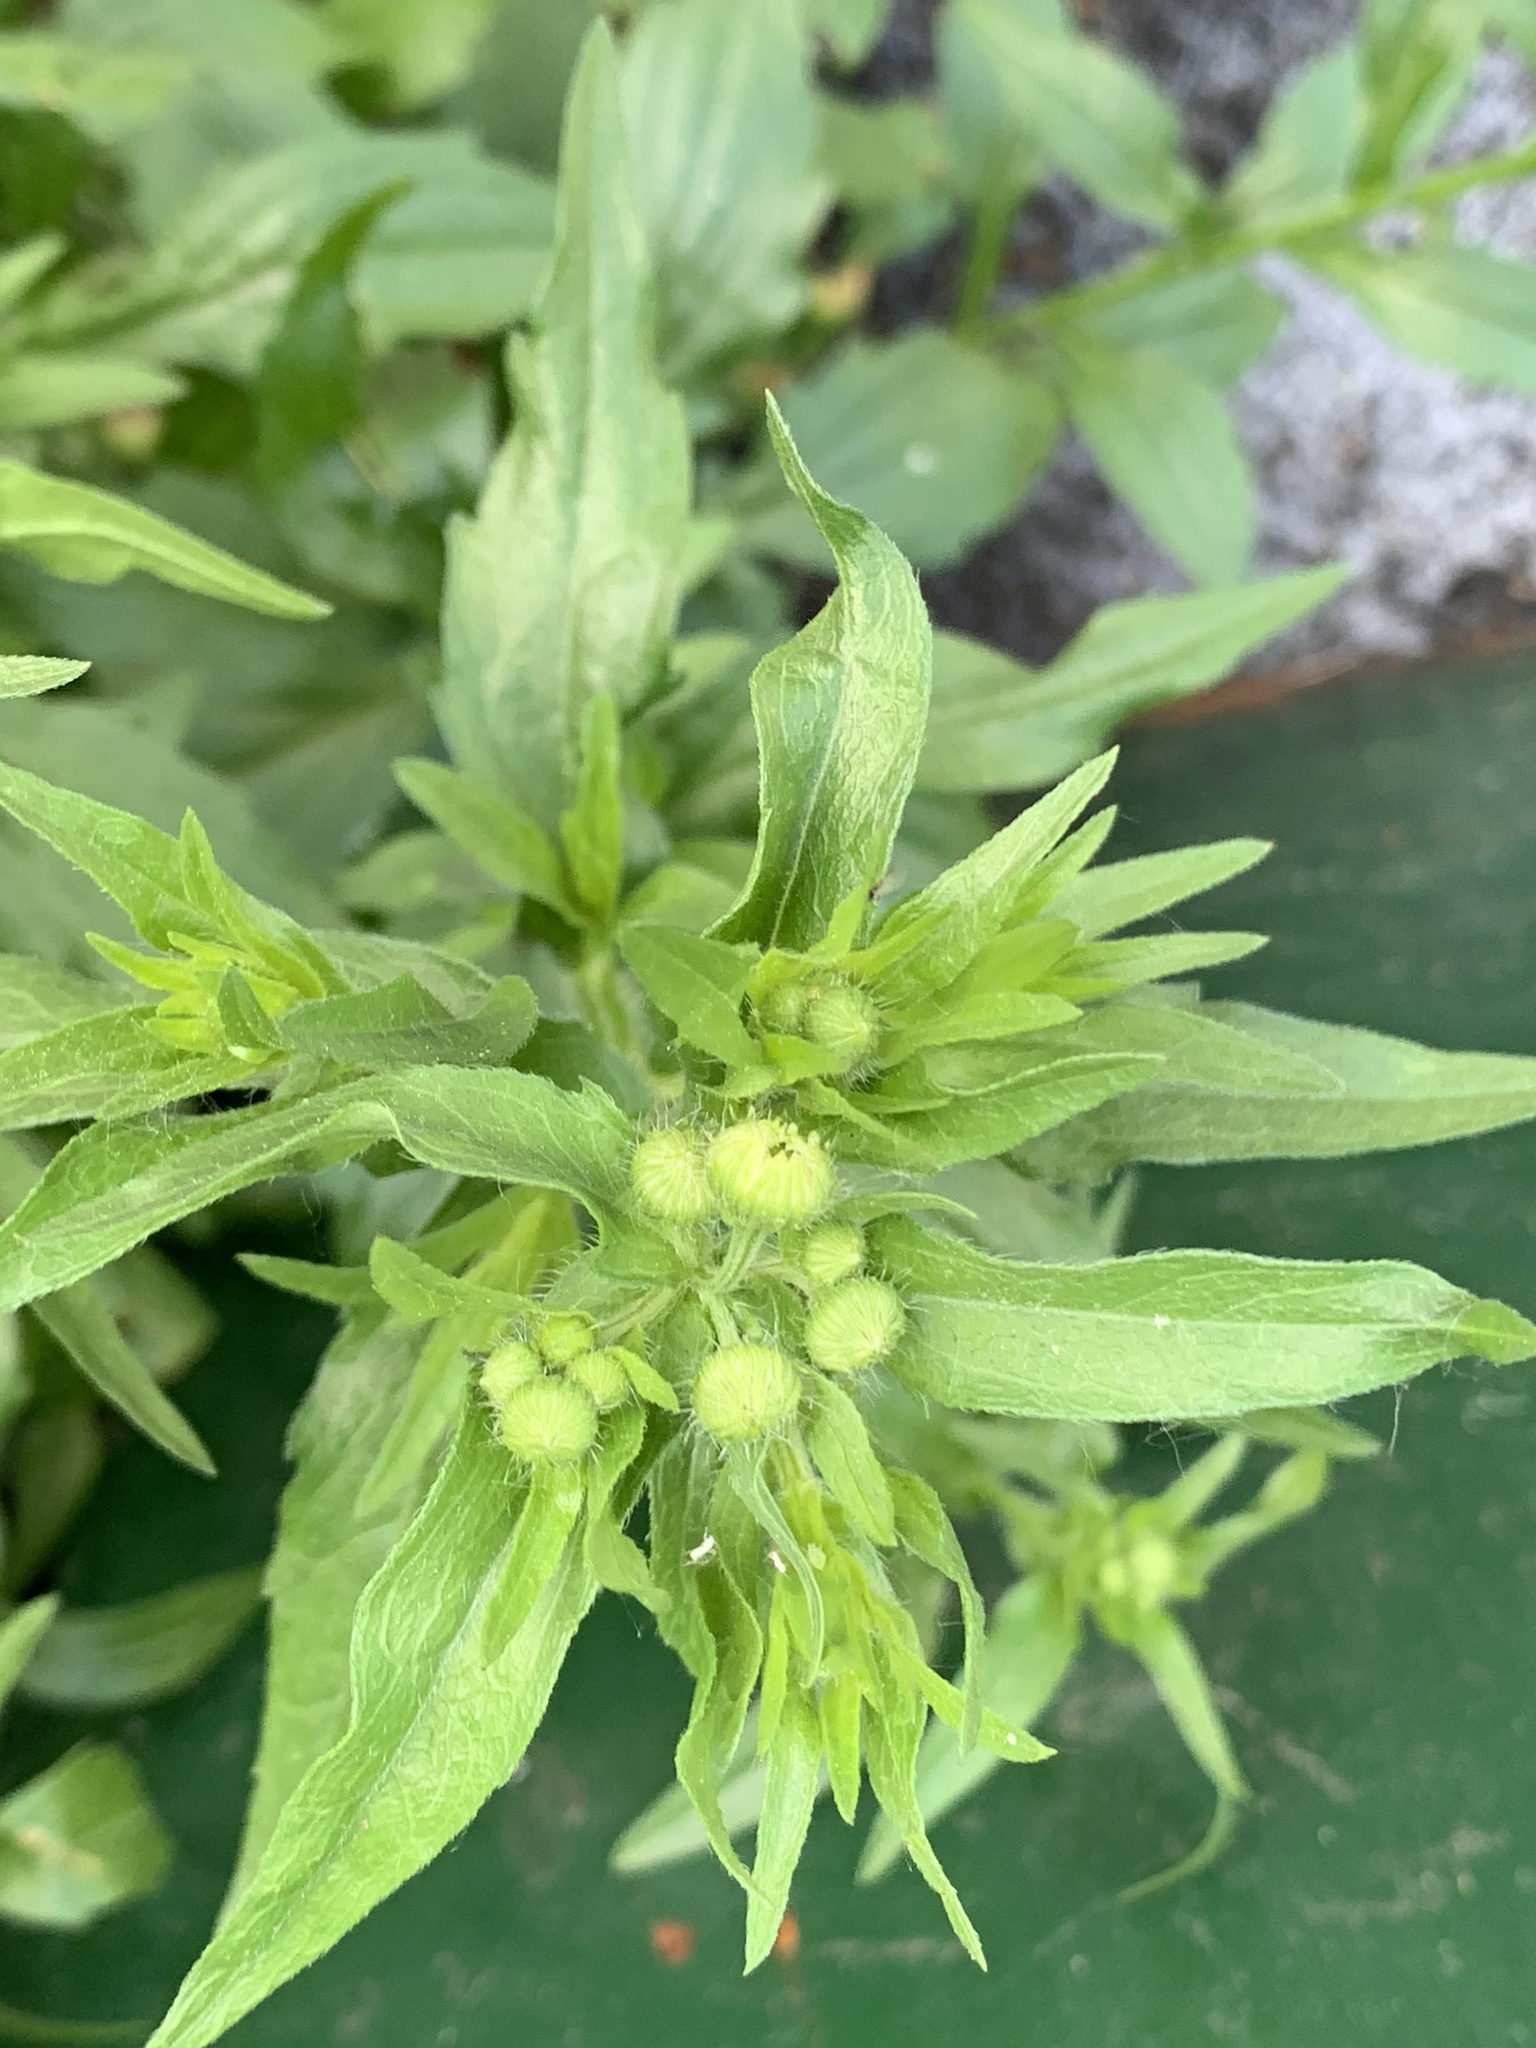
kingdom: Plantae
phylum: Tracheophyta
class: Magnoliopsida
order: Asterales
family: Asteraceae
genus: Erigeron
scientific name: Erigeron annuus
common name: Tall fleabane
